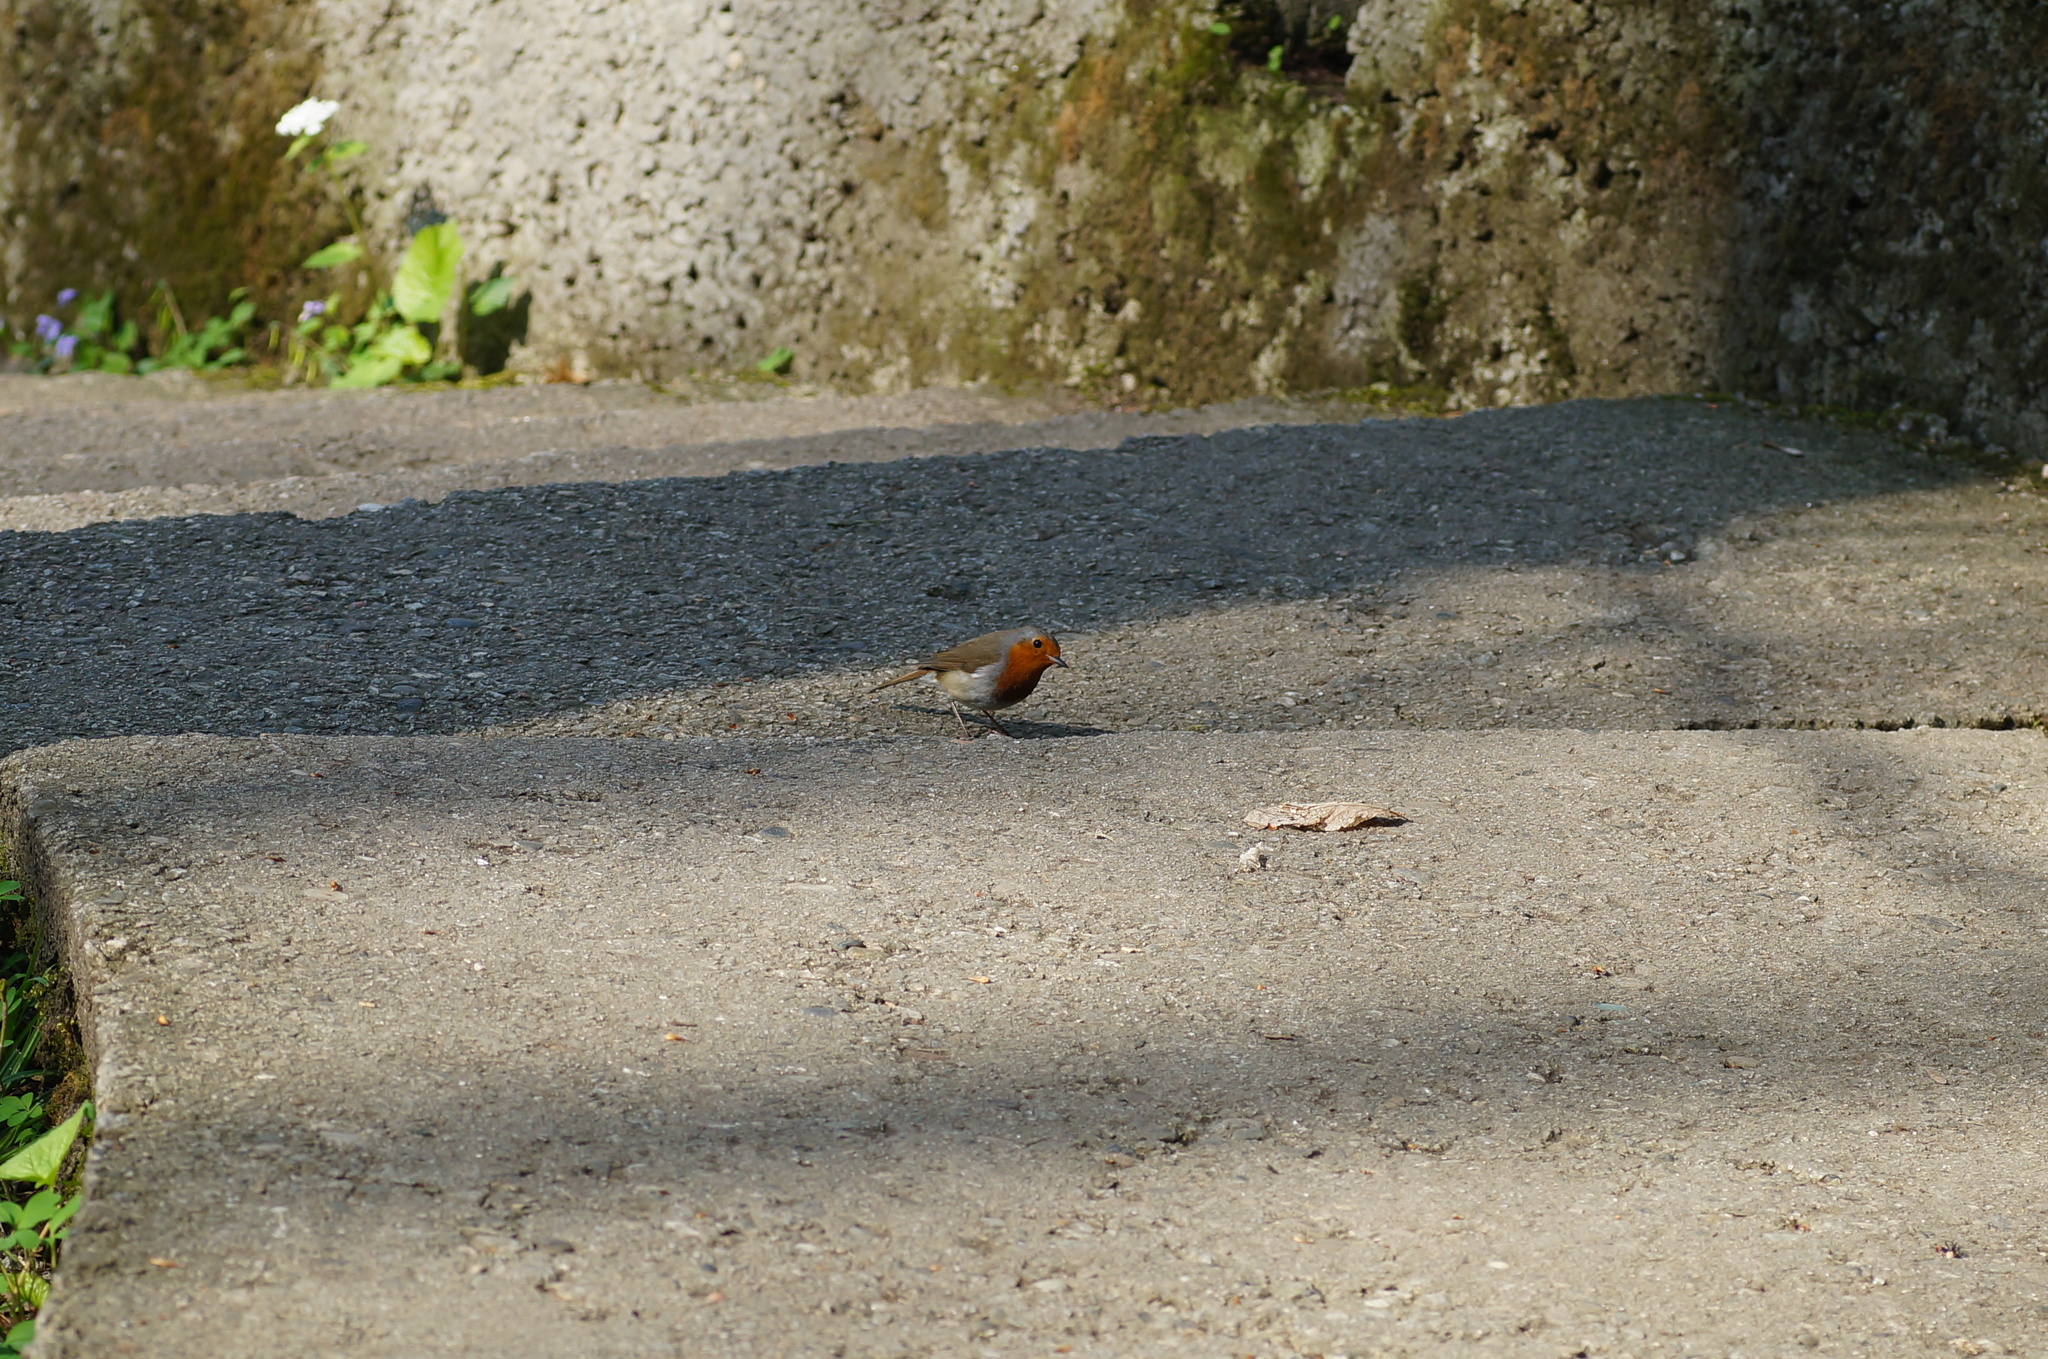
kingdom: Animalia
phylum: Chordata
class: Aves
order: Passeriformes
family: Muscicapidae
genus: Erithacus
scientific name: Erithacus rubecula
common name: European robin
